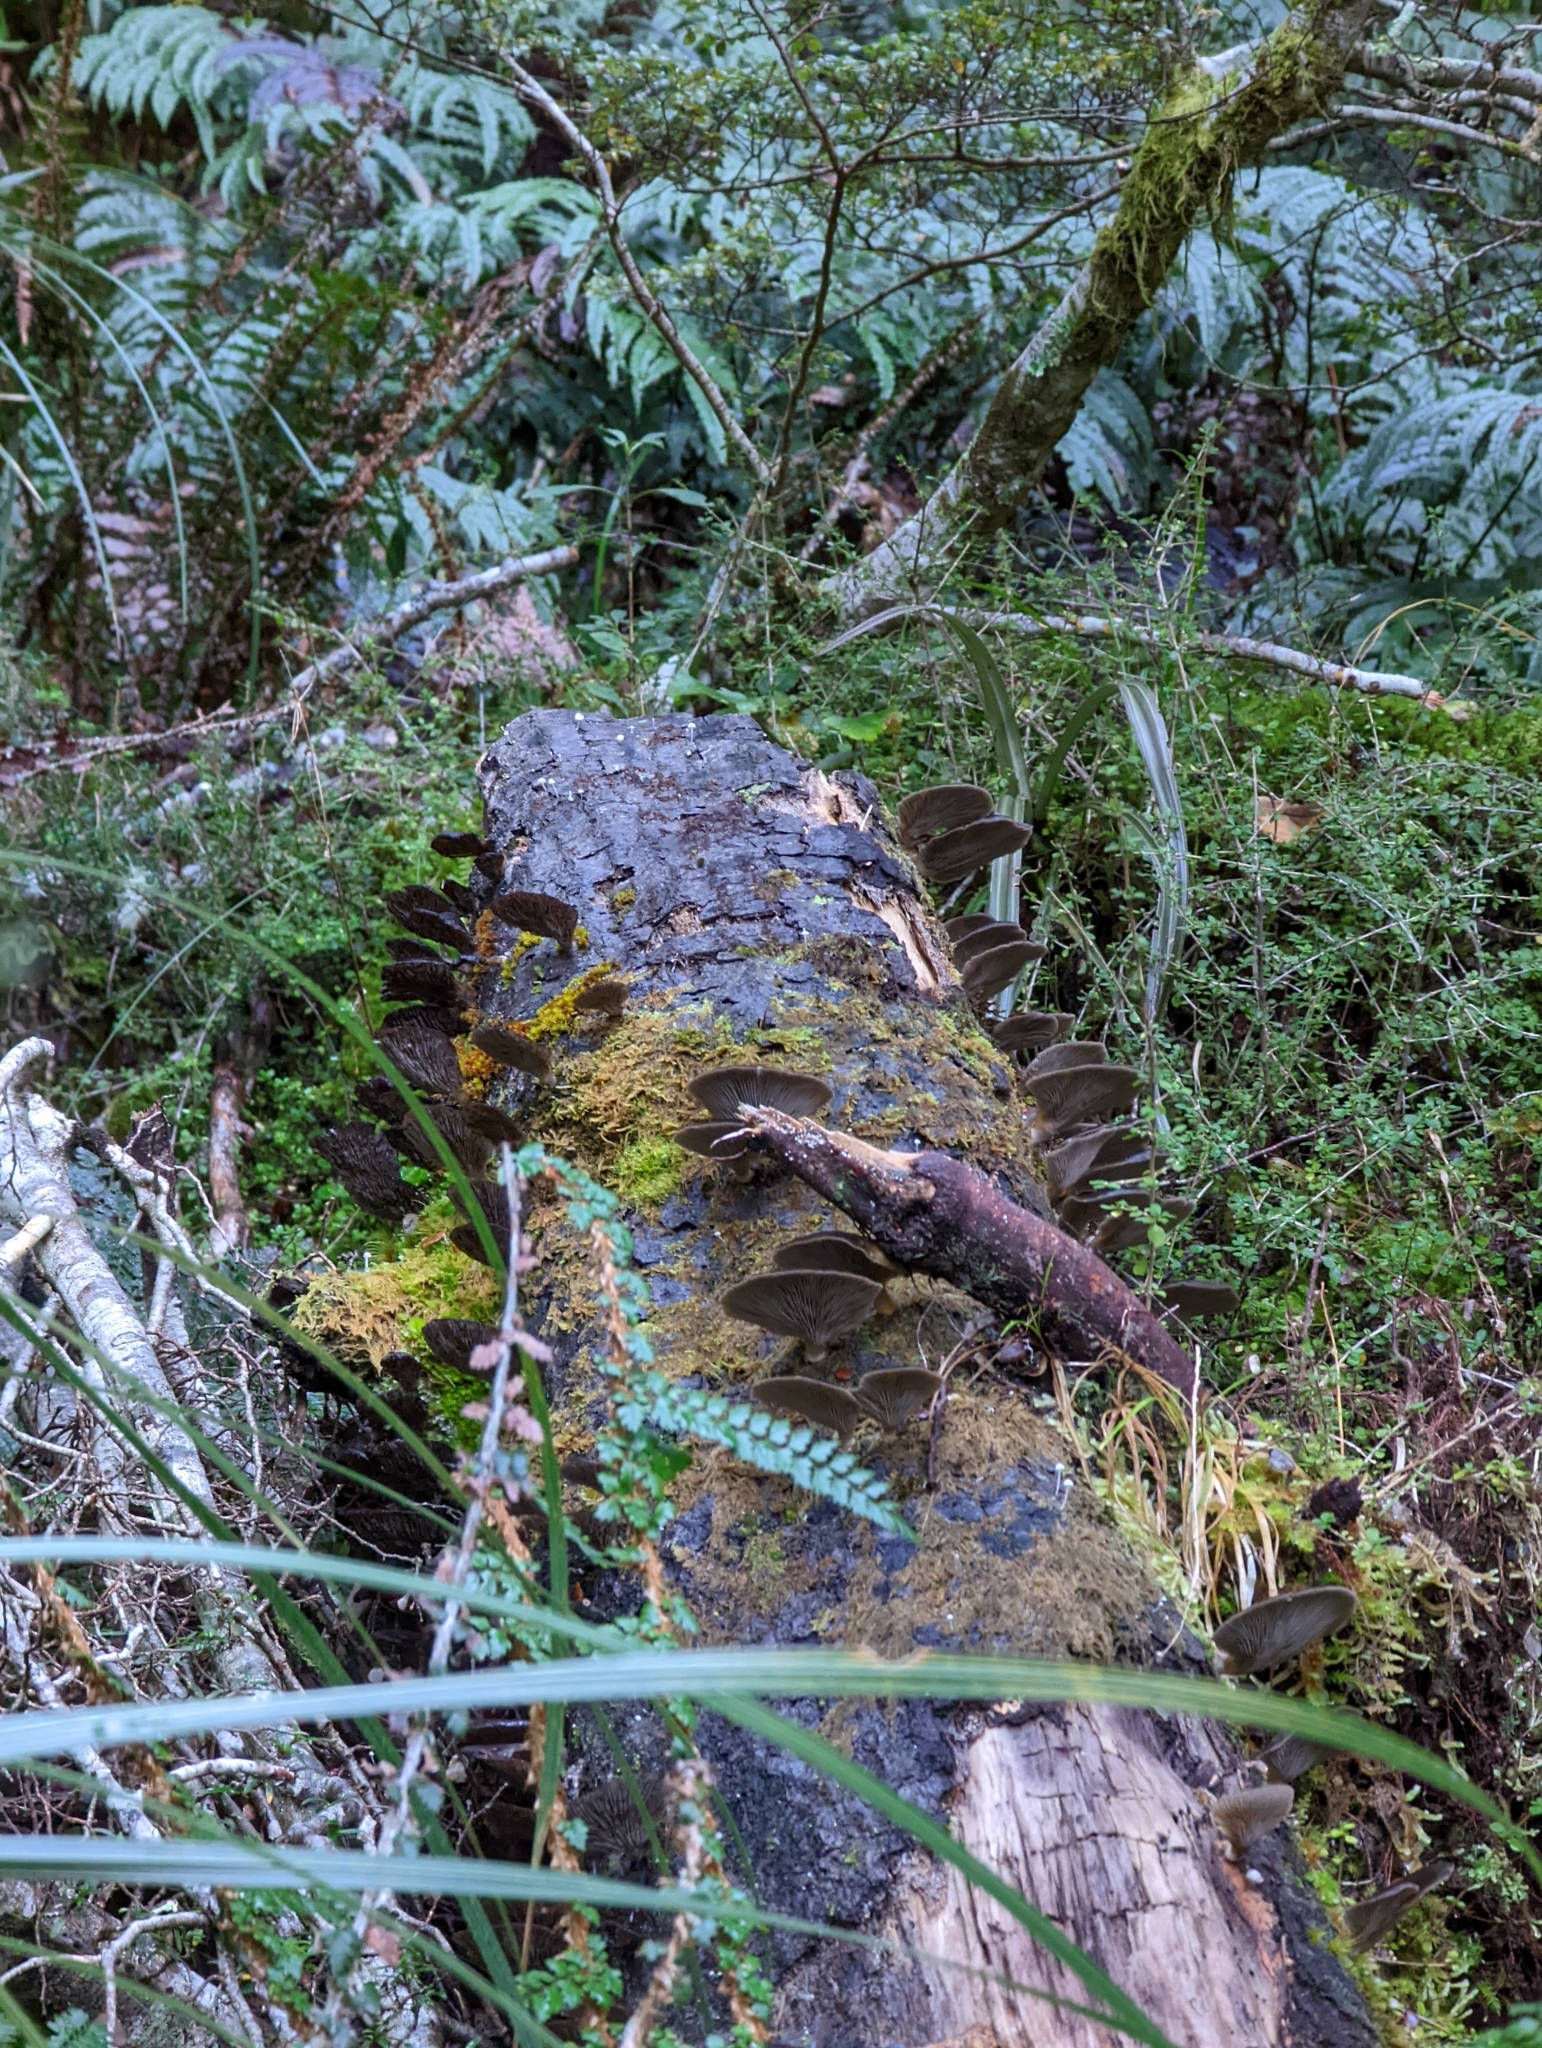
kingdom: Fungi
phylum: Basidiomycota
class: Agaricomycetes
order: Agaricales
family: Pleurotaceae
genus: Pleurotus
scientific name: Pleurotus purpureo-olivaceus
